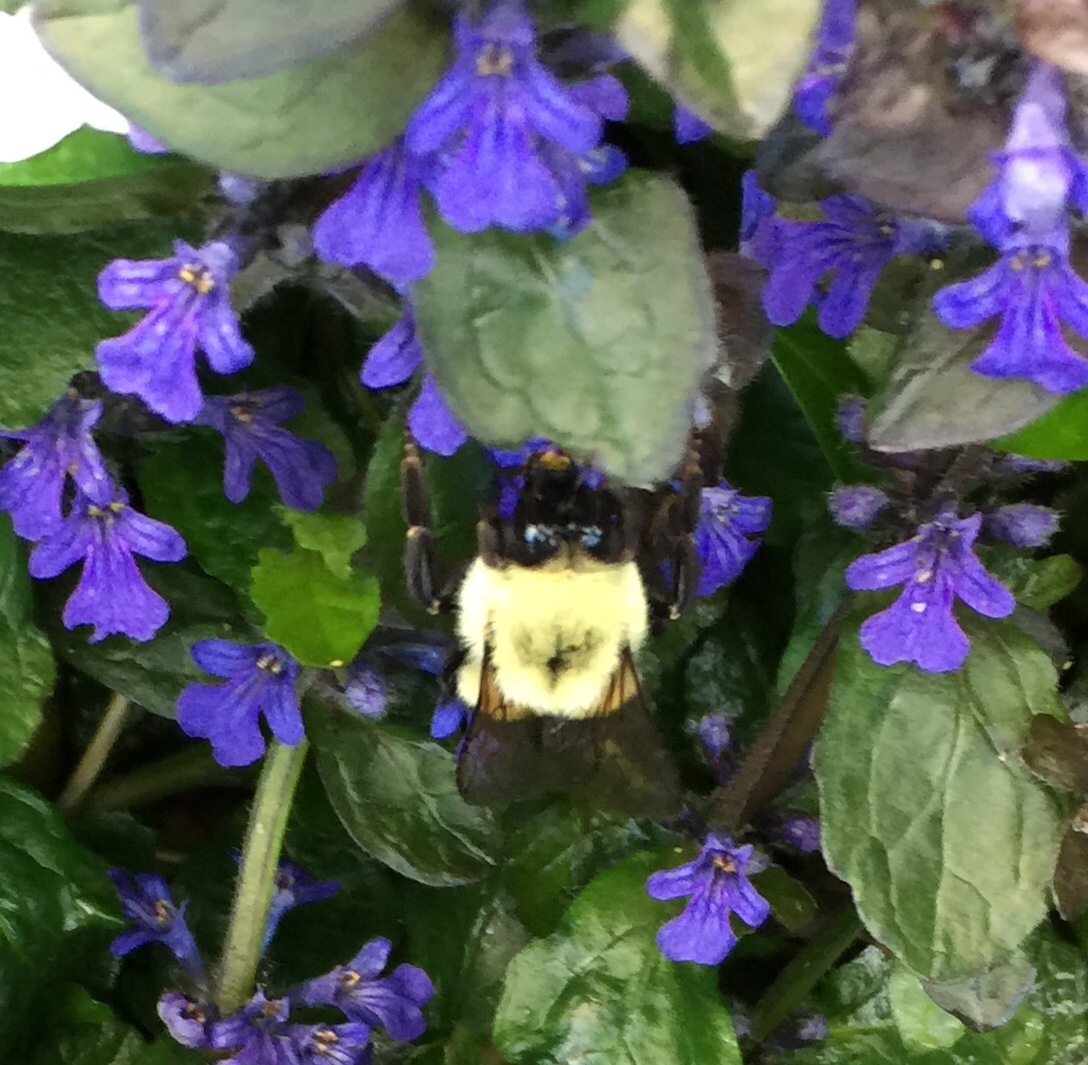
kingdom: Animalia
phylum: Arthropoda
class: Insecta
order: Hymenoptera
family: Apidae
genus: Bombus
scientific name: Bombus impatiens
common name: Common eastern bumble bee
